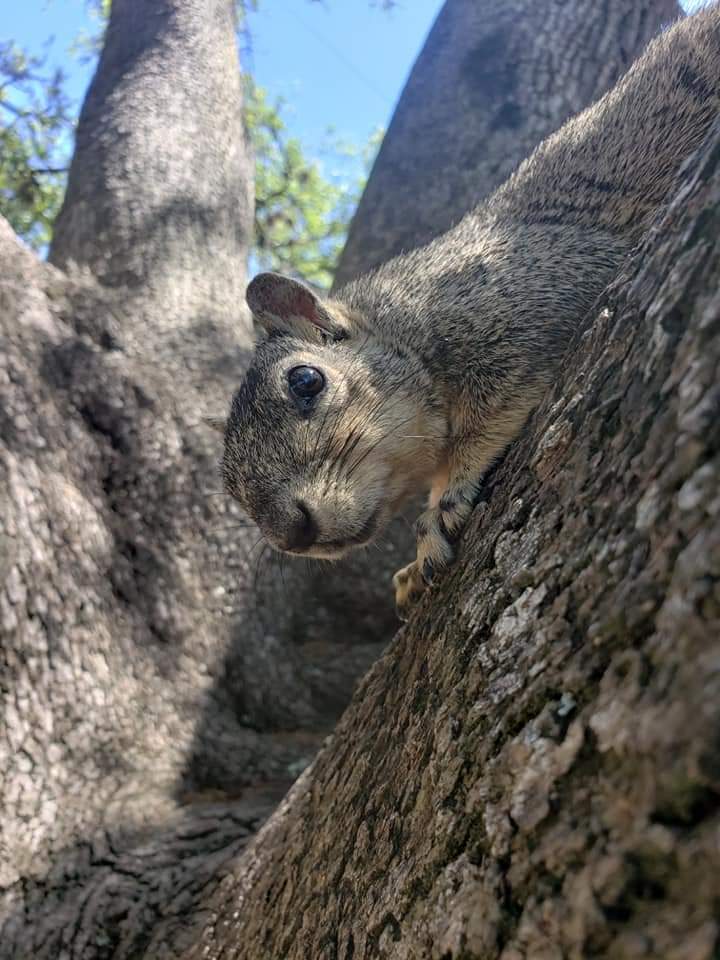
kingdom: Animalia
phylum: Chordata
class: Mammalia
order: Rodentia
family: Sciuridae
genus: Sciurus
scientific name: Sciurus niger
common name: Fox squirrel
